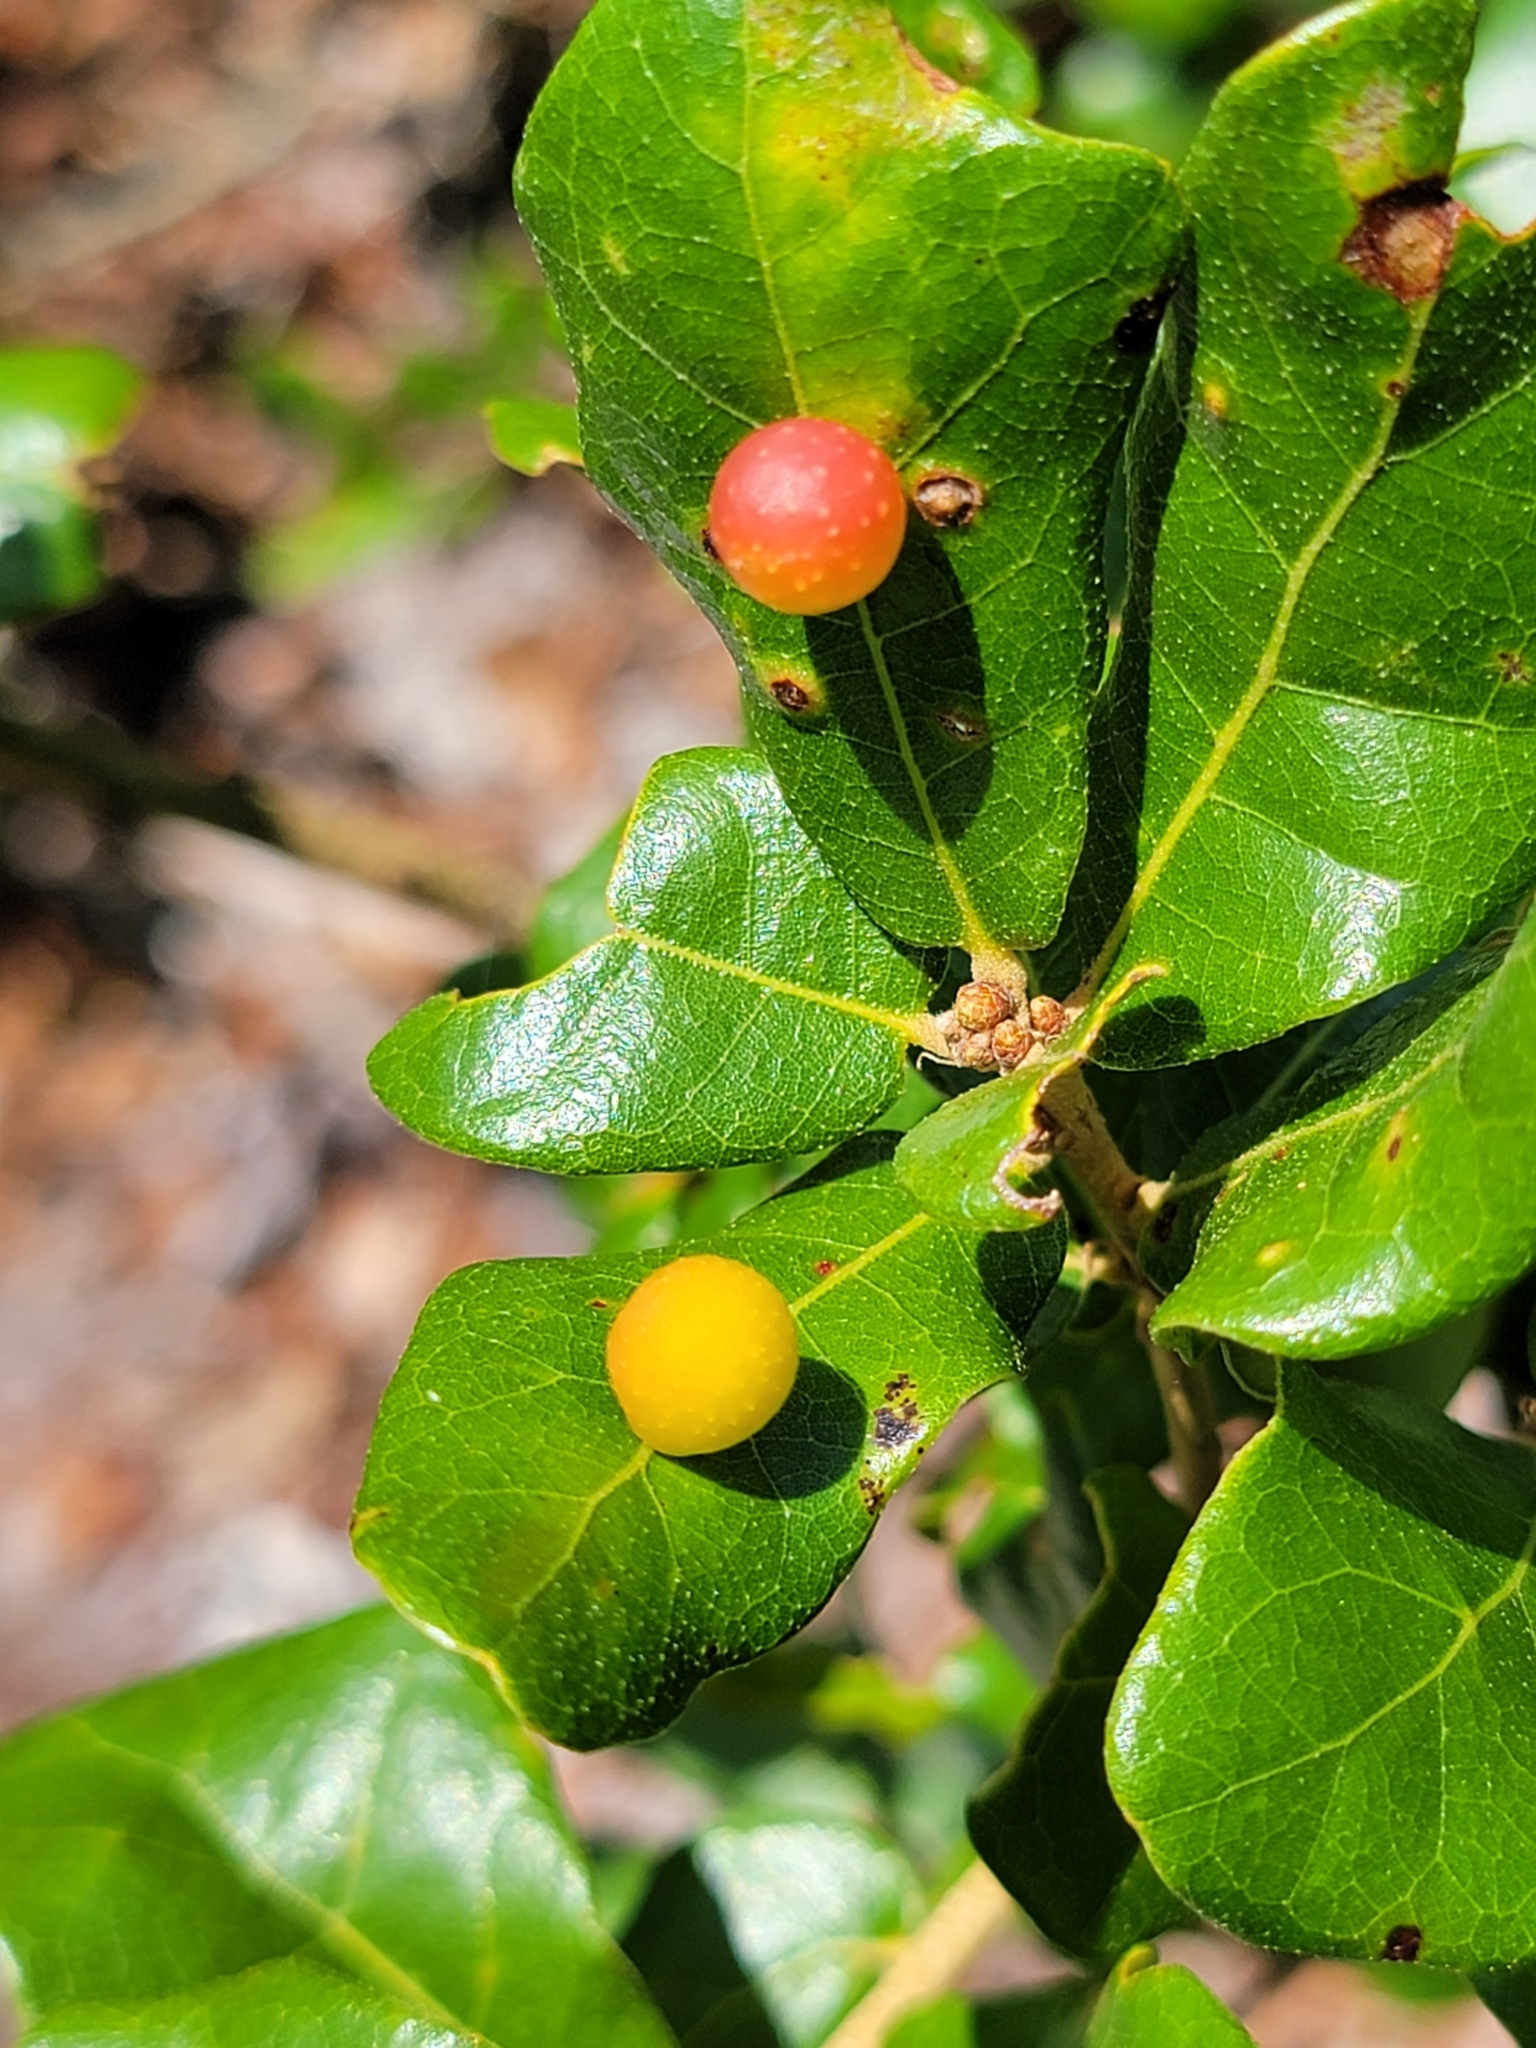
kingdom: Animalia
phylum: Arthropoda
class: Insecta
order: Hymenoptera
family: Cynipidae
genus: Trigonaspis
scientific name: Trigonaspis
